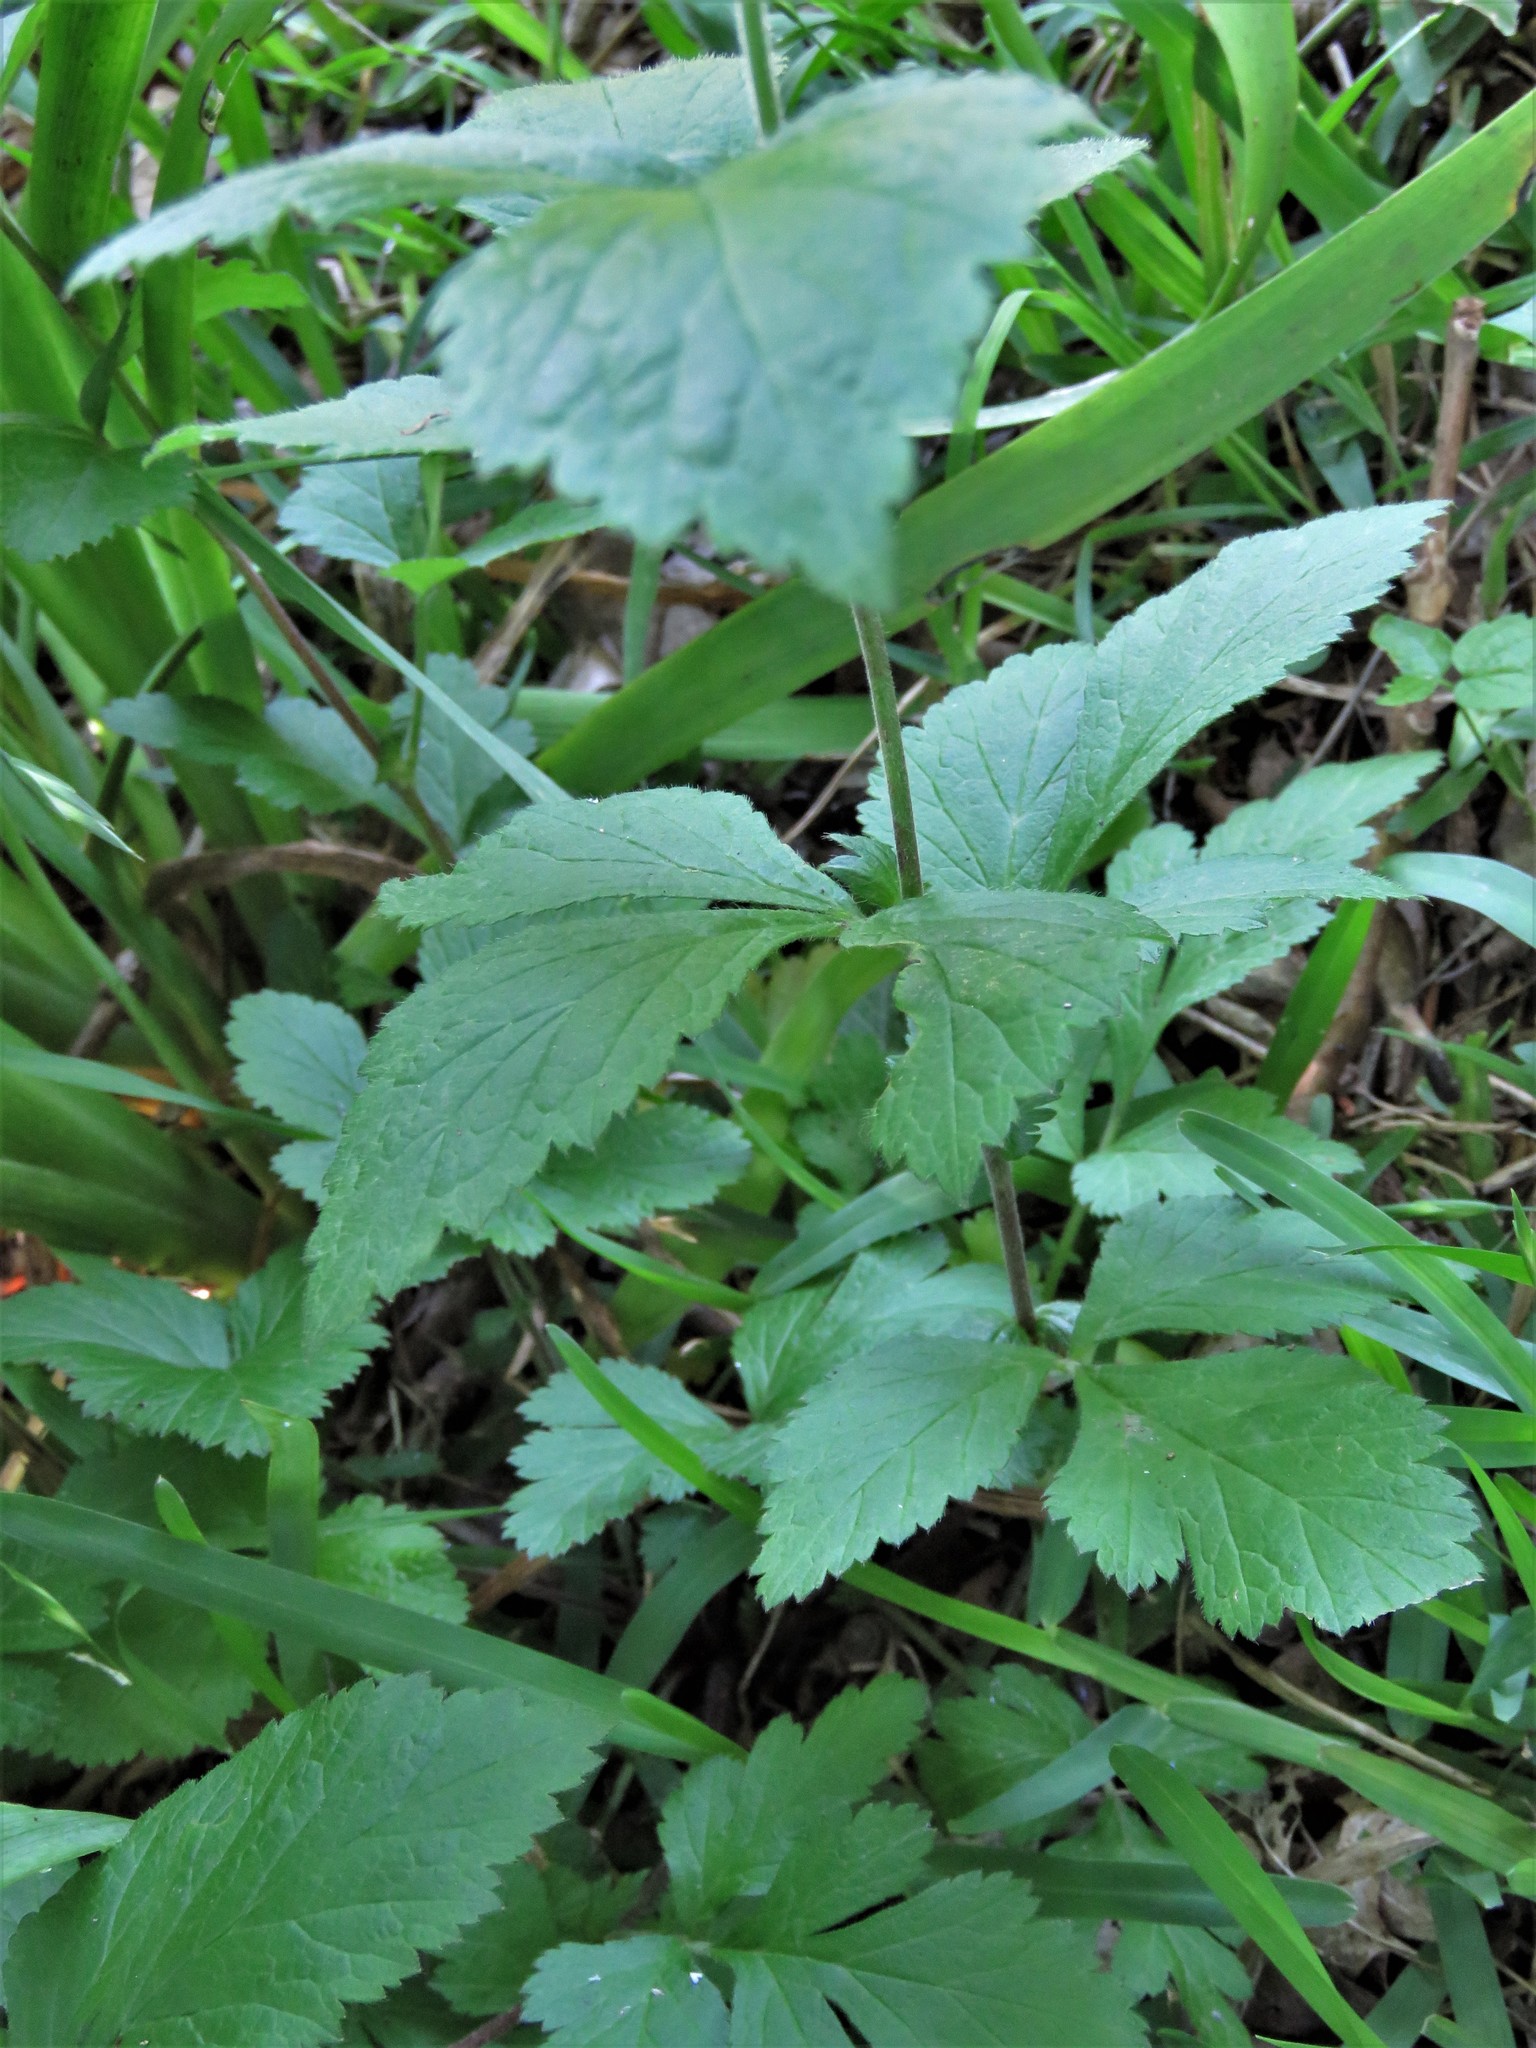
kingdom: Plantae
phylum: Tracheophyta
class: Magnoliopsida
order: Rosales
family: Rosaceae
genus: Geum
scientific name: Geum canadense
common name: White avens
